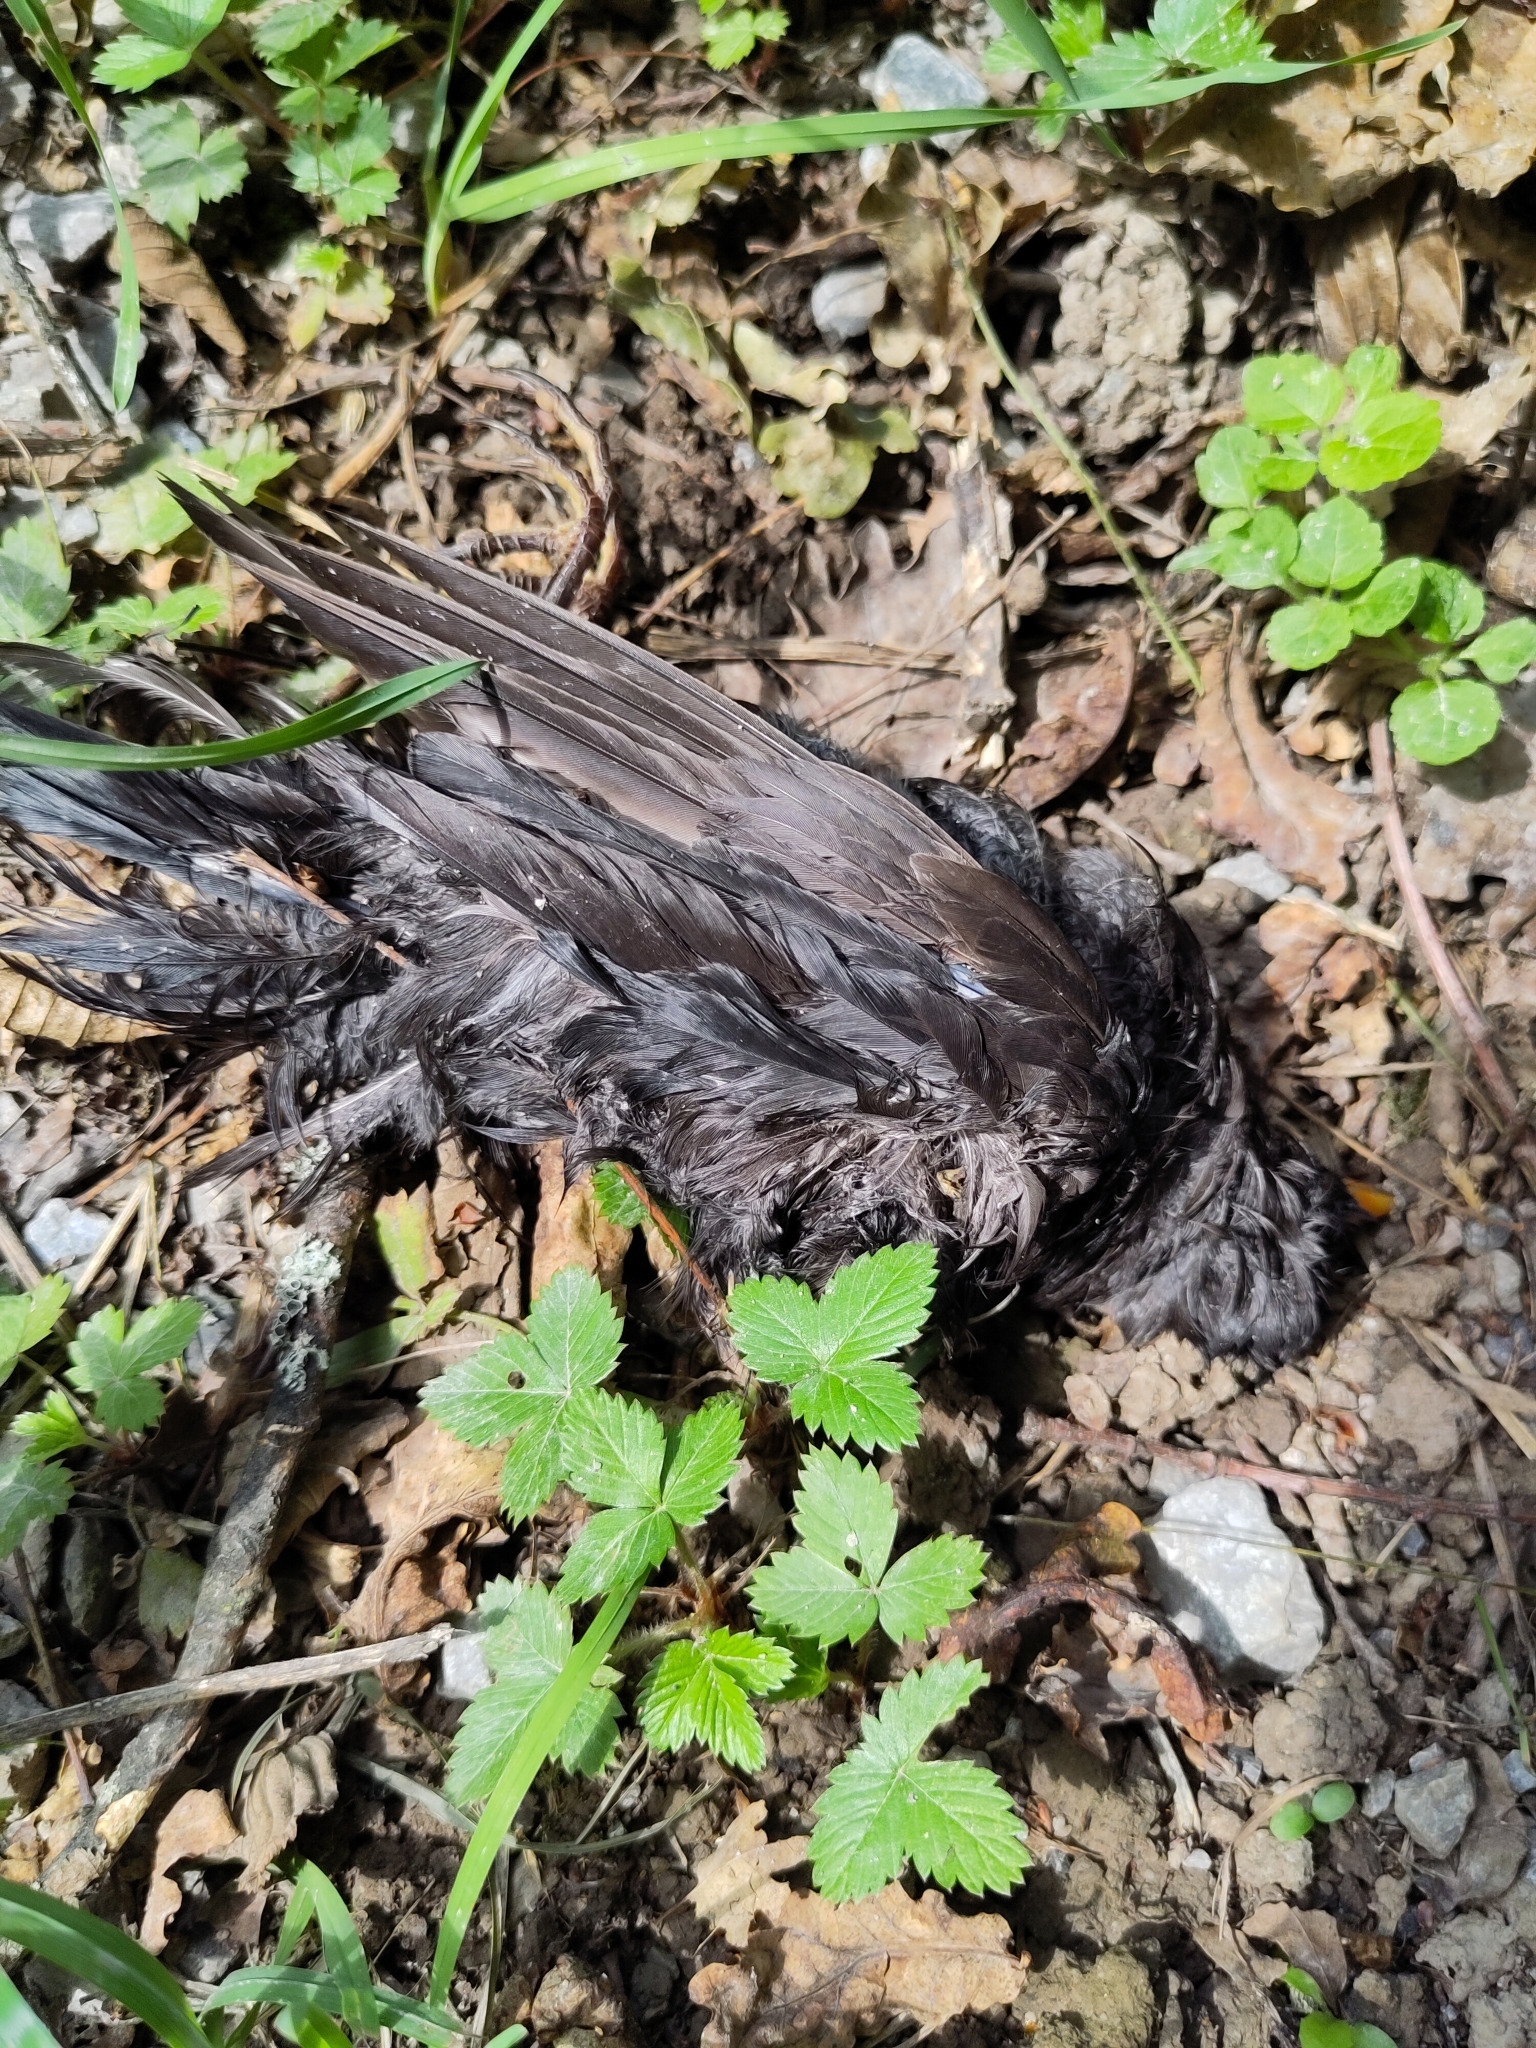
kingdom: Animalia
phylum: Chordata
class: Aves
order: Passeriformes
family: Turdidae
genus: Turdus
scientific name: Turdus merula
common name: Common blackbird
